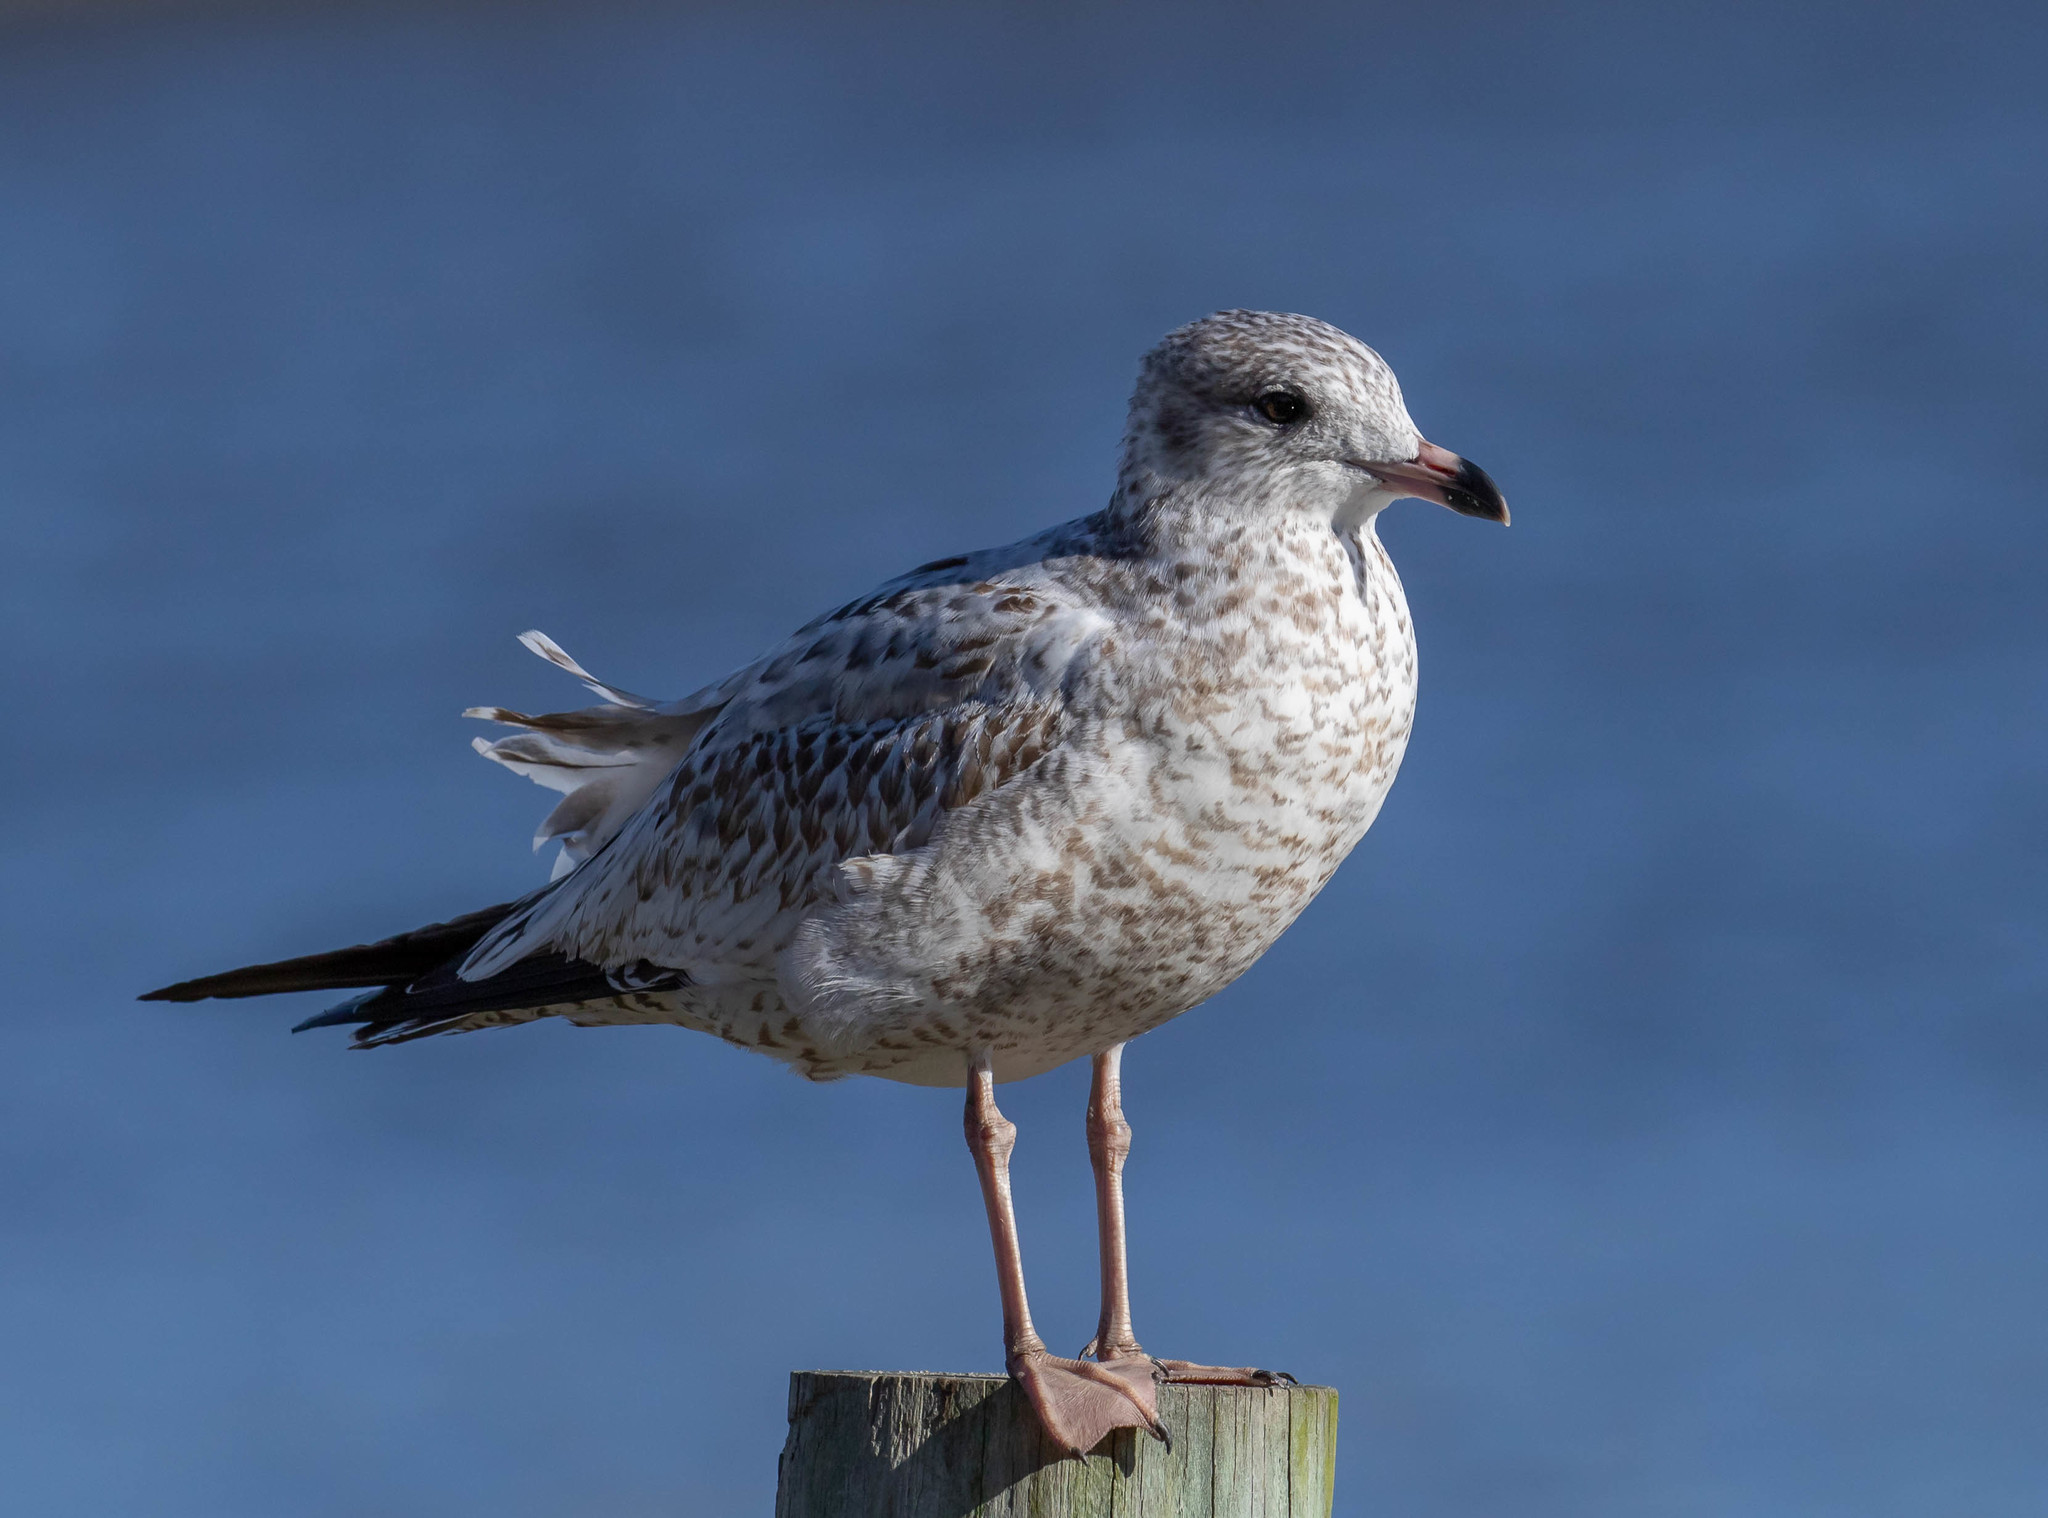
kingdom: Animalia
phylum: Chordata
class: Aves
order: Charadriiformes
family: Laridae
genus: Larus
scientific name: Larus delawarensis
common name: Ring-billed gull
